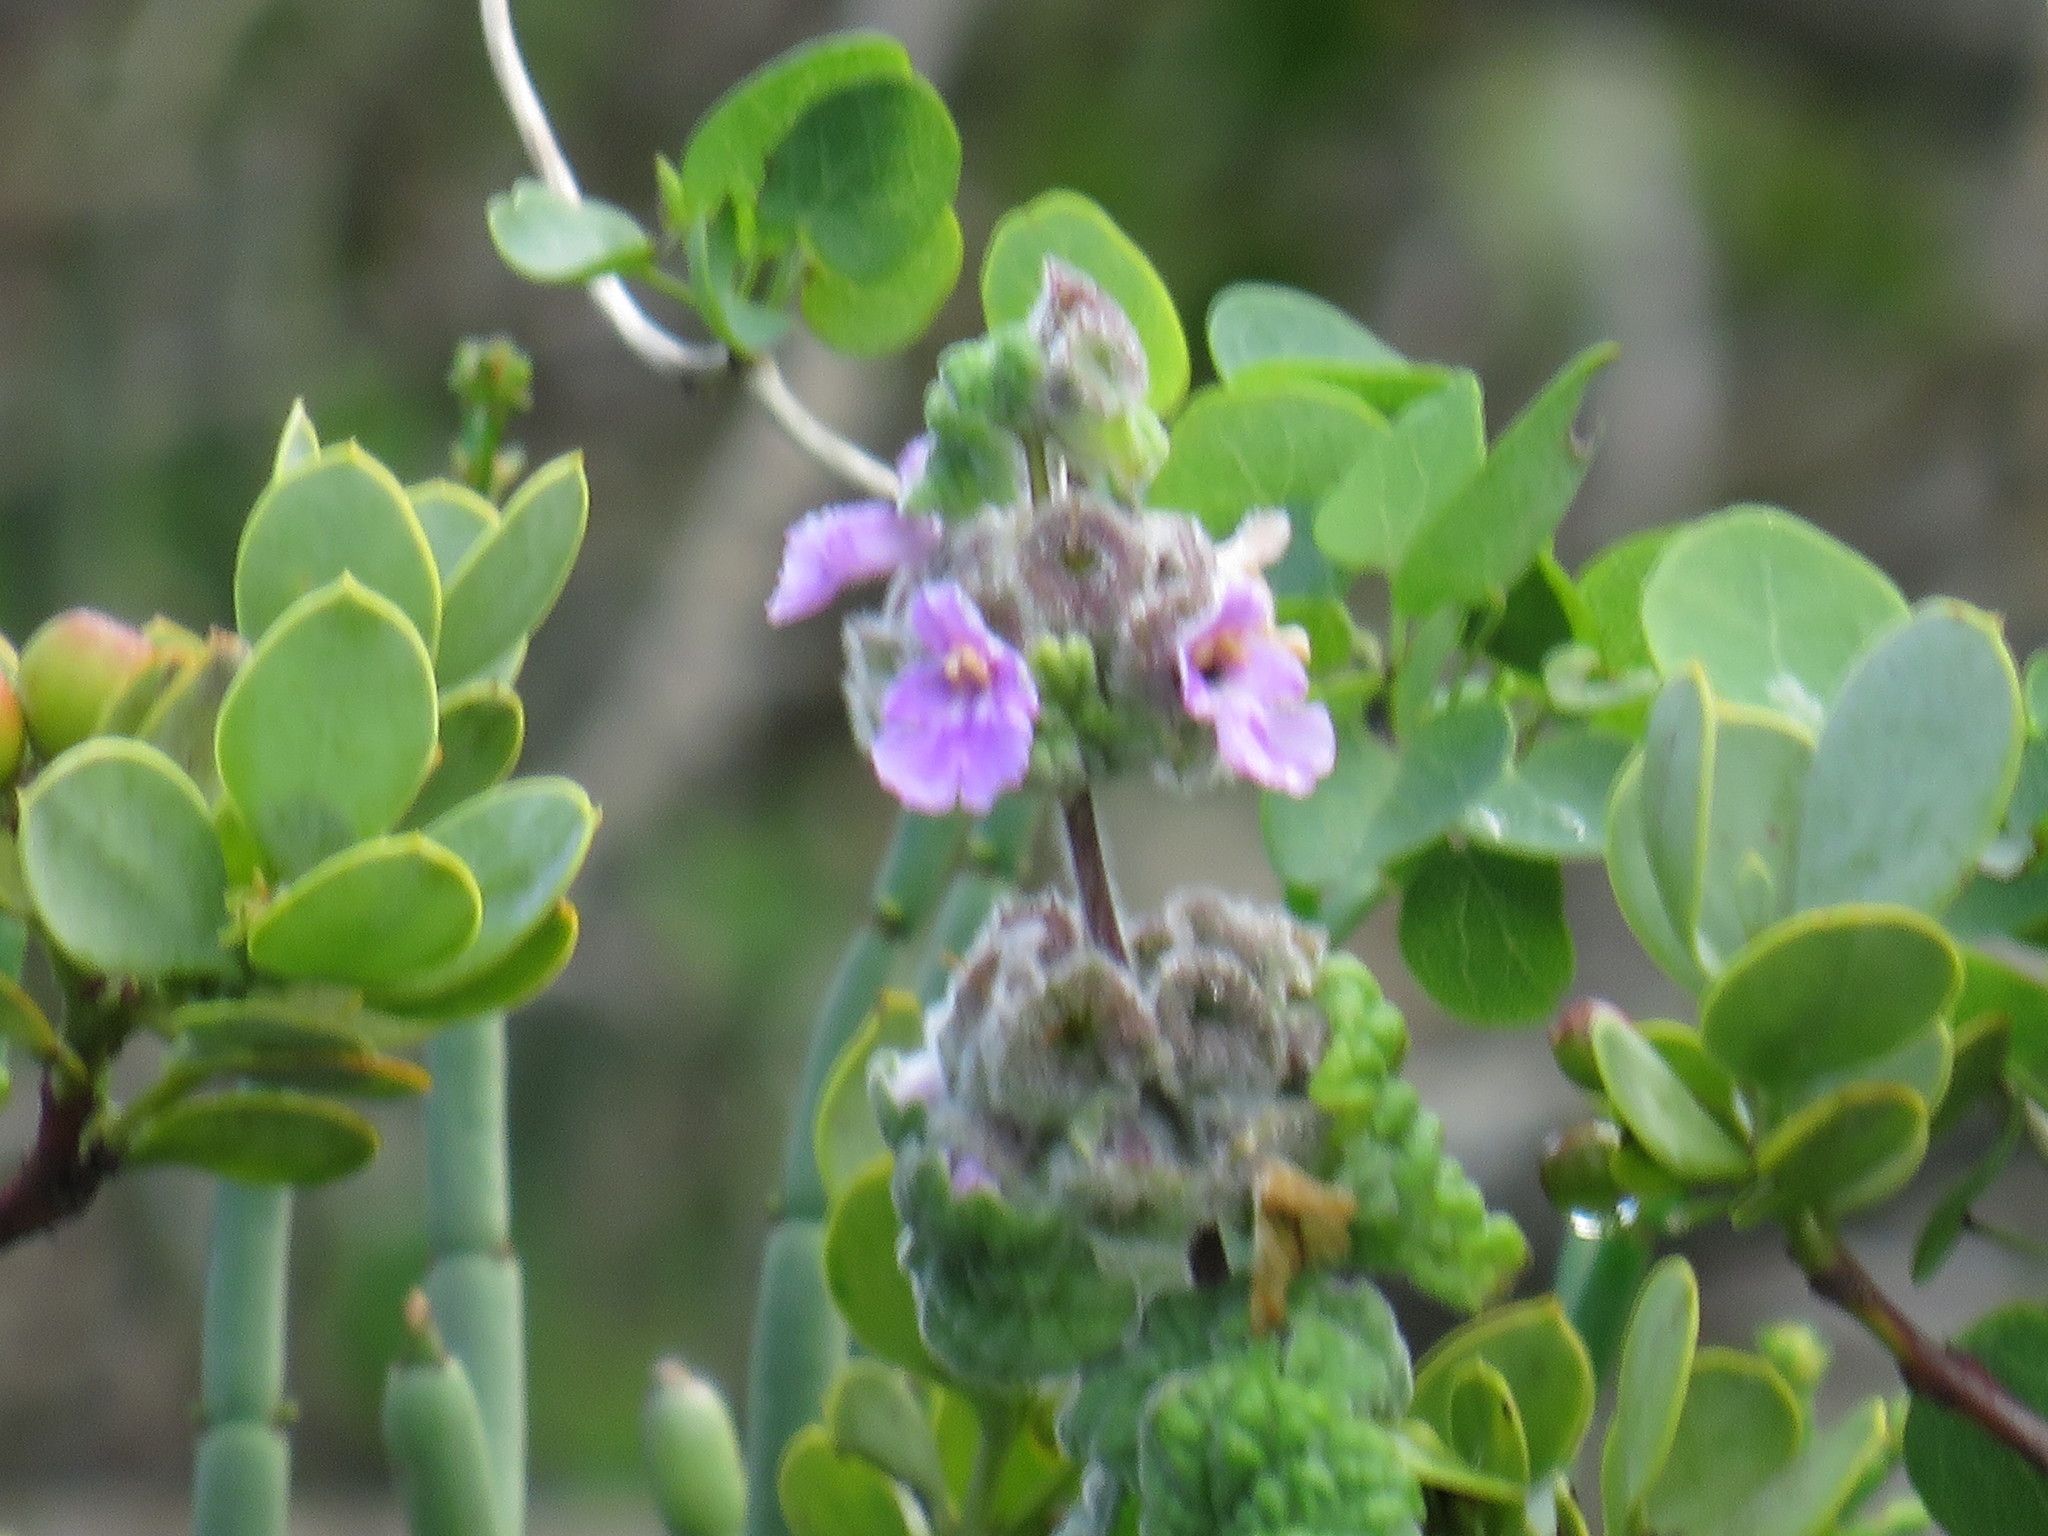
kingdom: Plantae
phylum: Tracheophyta
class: Magnoliopsida
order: Lamiales
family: Lamiaceae
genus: Pseudodictamnus
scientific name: Pseudodictamnus africanus
